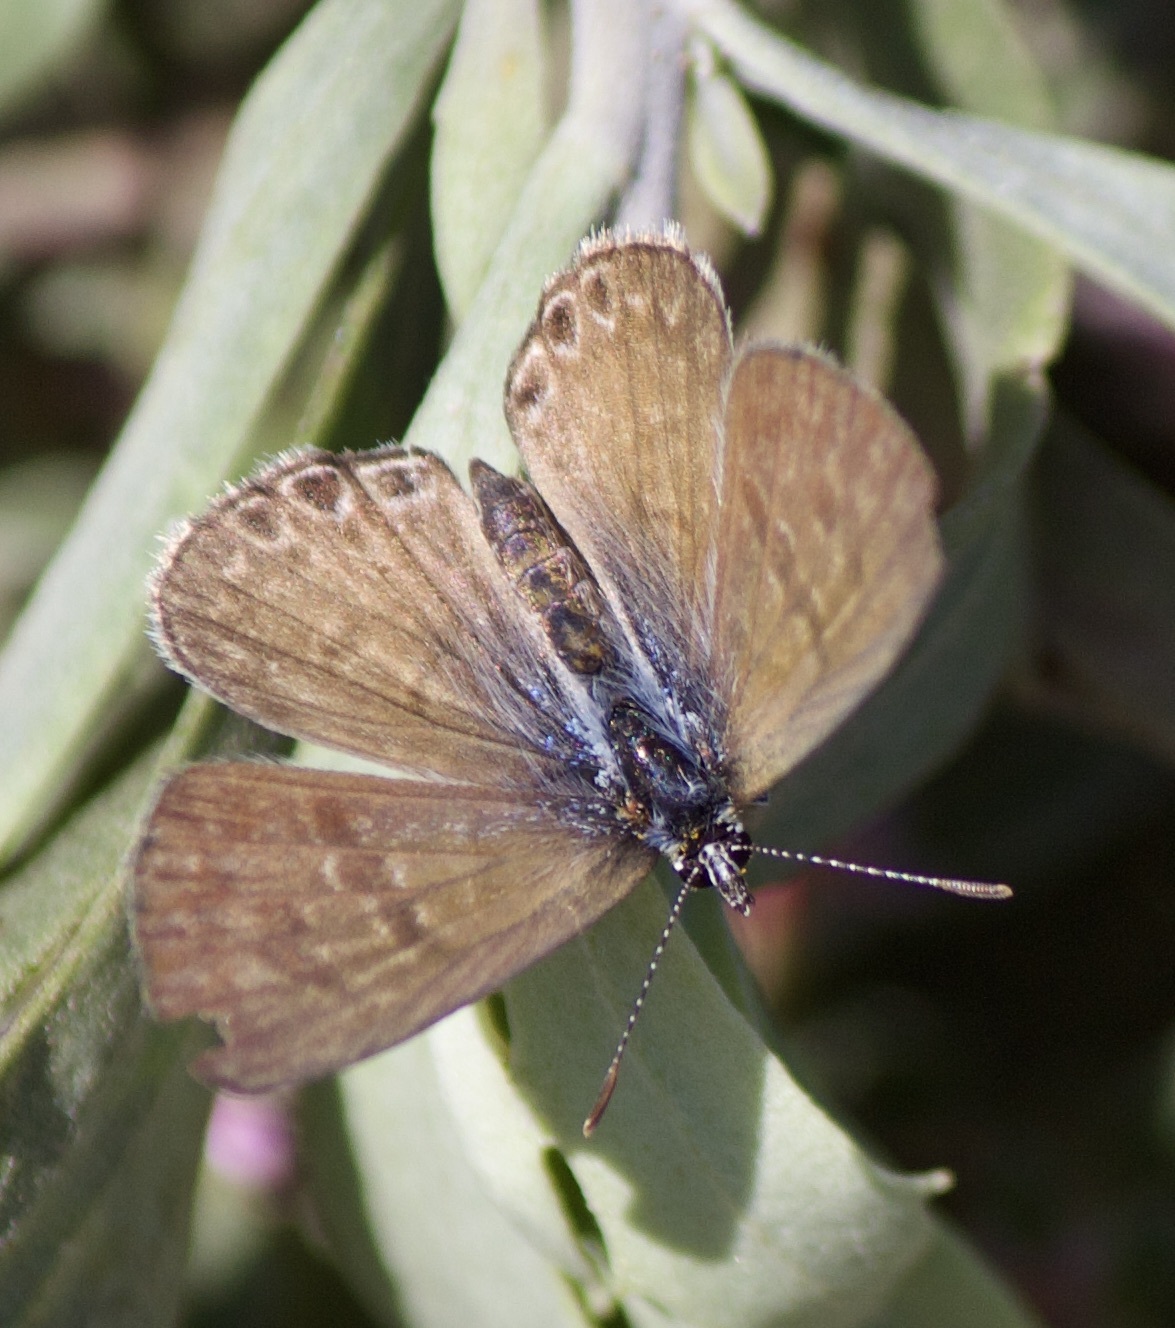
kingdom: Animalia
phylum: Arthropoda
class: Insecta
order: Lepidoptera
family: Lycaenidae
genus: Leptotes
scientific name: Leptotes trigemmatus
